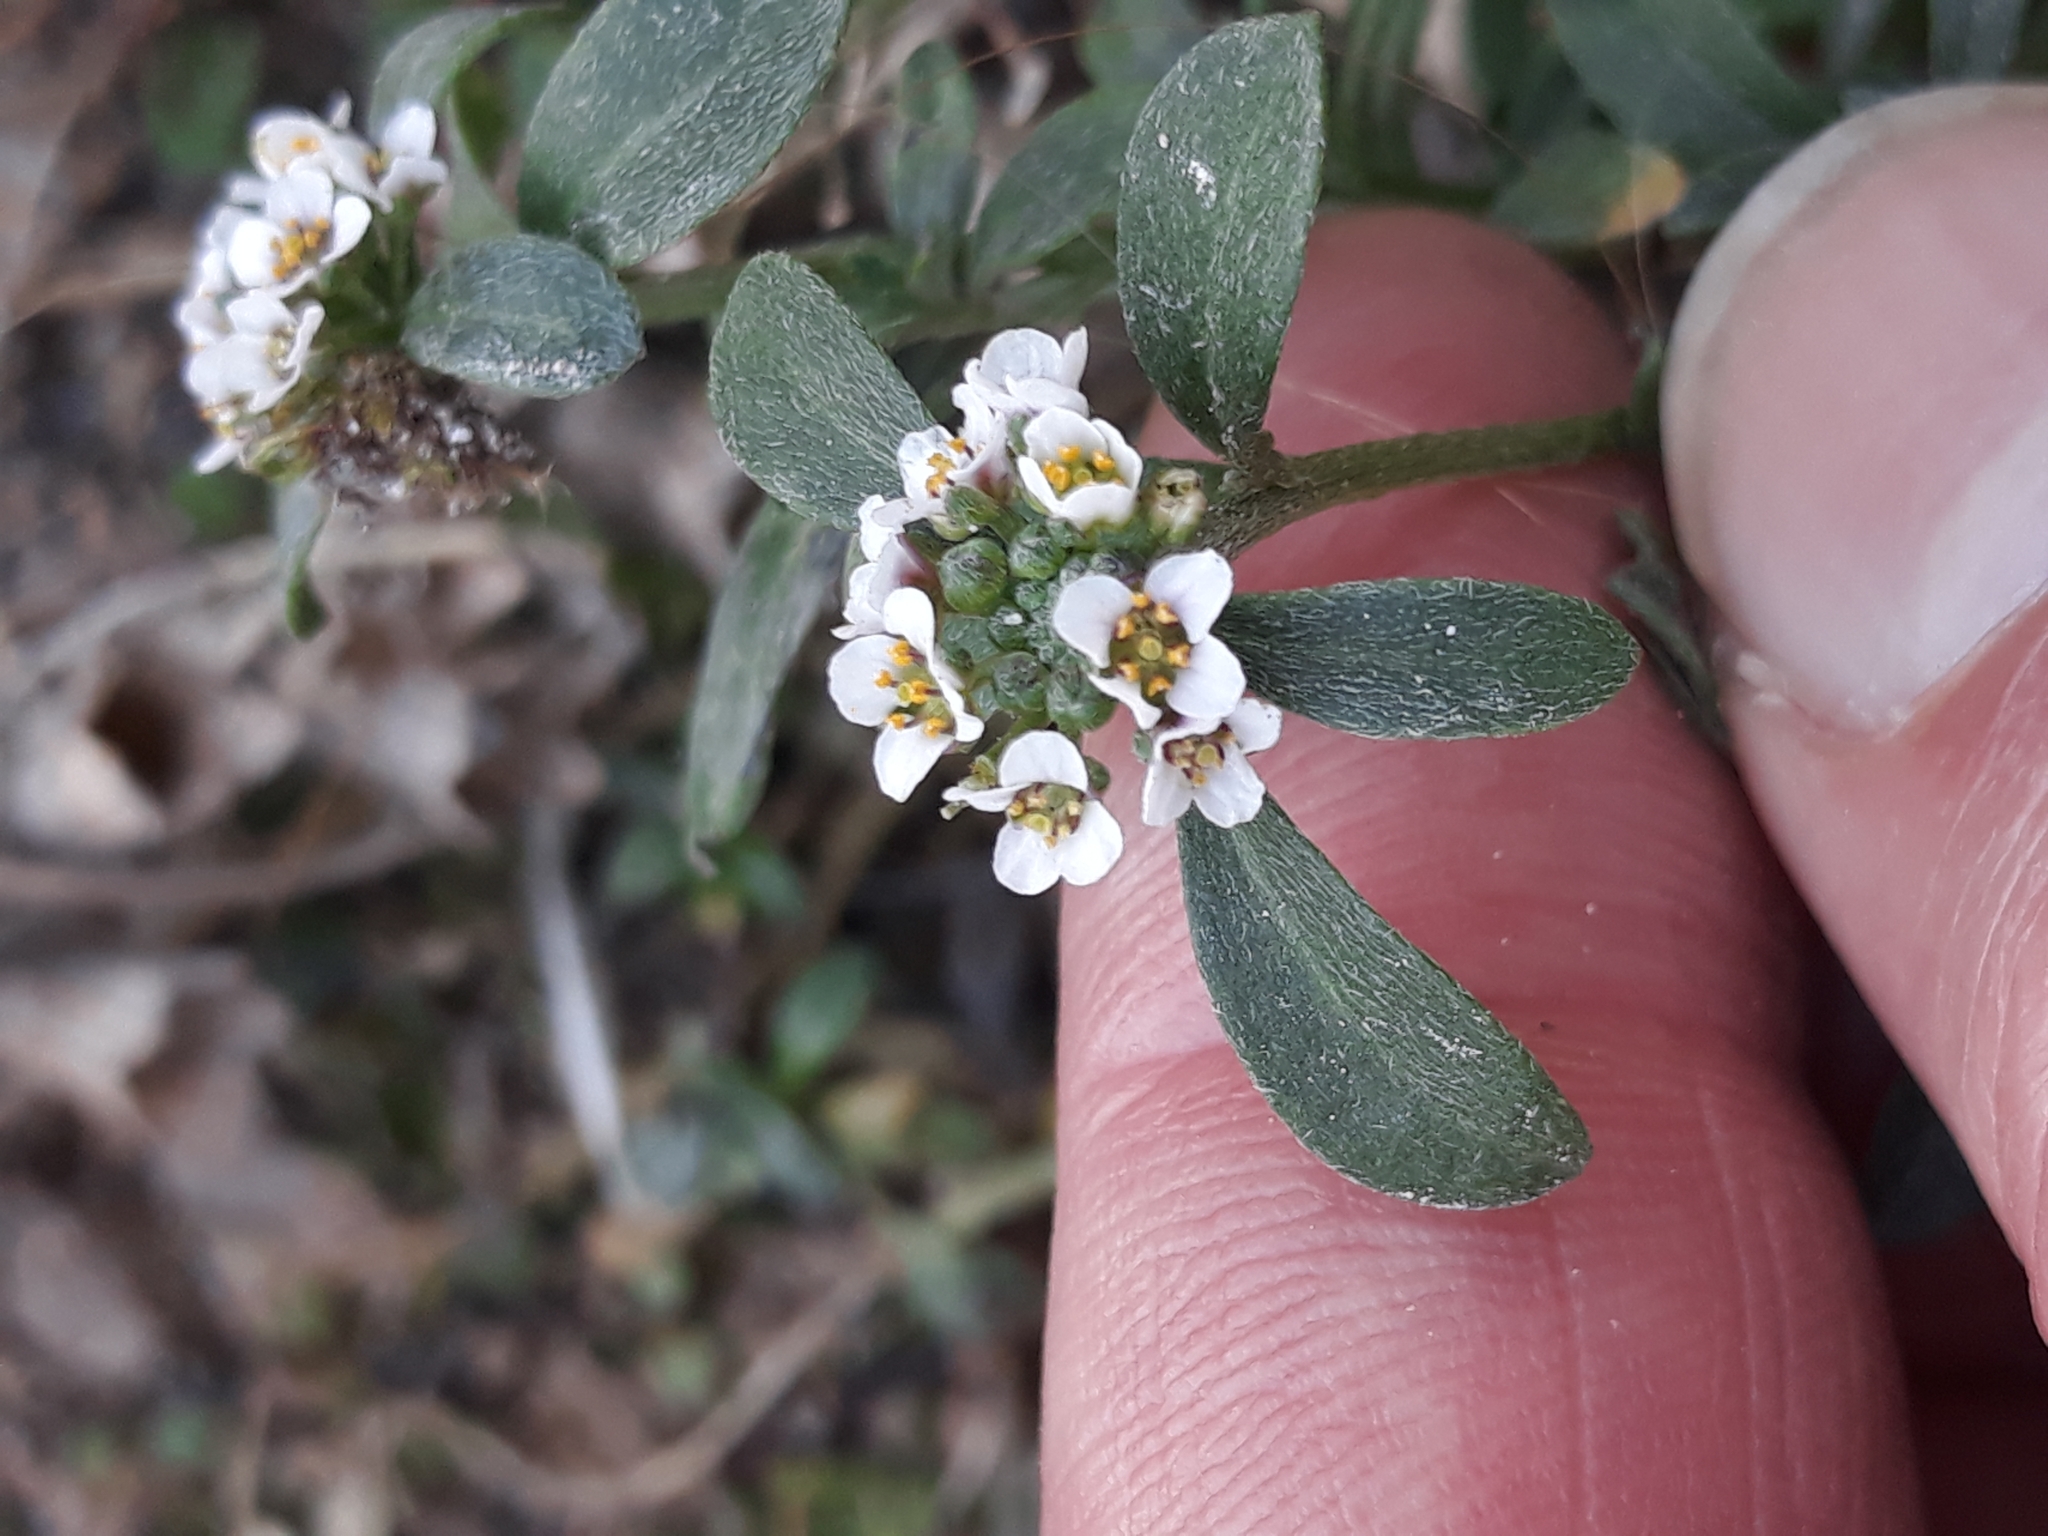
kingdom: Plantae
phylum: Tracheophyta
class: Magnoliopsida
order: Brassicales
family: Brassicaceae
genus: Lobularia
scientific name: Lobularia maritima
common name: Sweet alison
